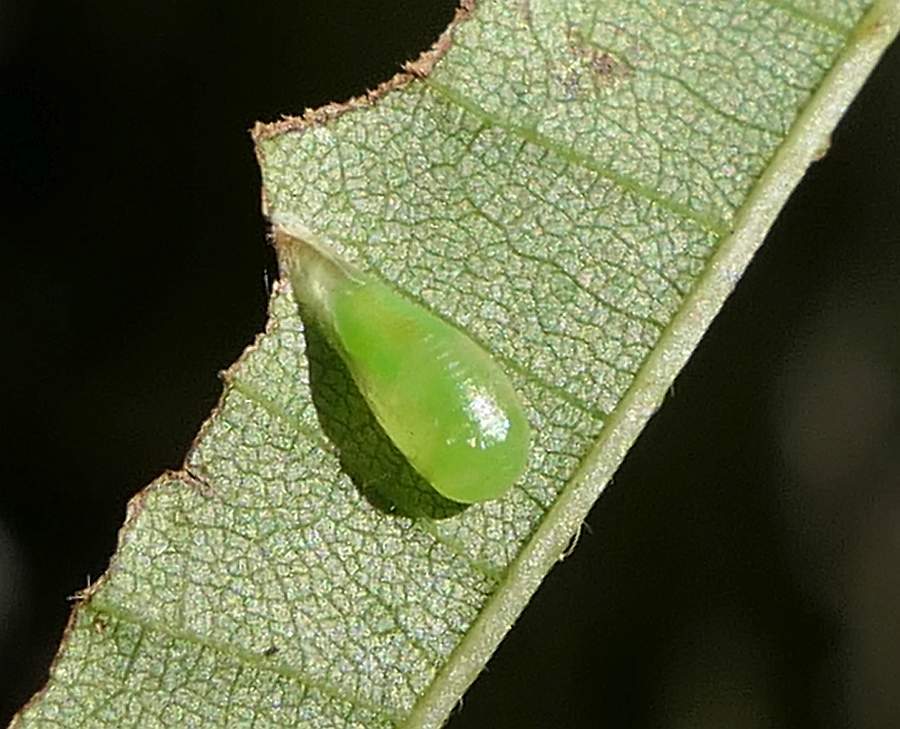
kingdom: Animalia
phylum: Arthropoda
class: Insecta
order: Diptera
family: Syrphidae
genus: Toxomerus
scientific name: Toxomerus
